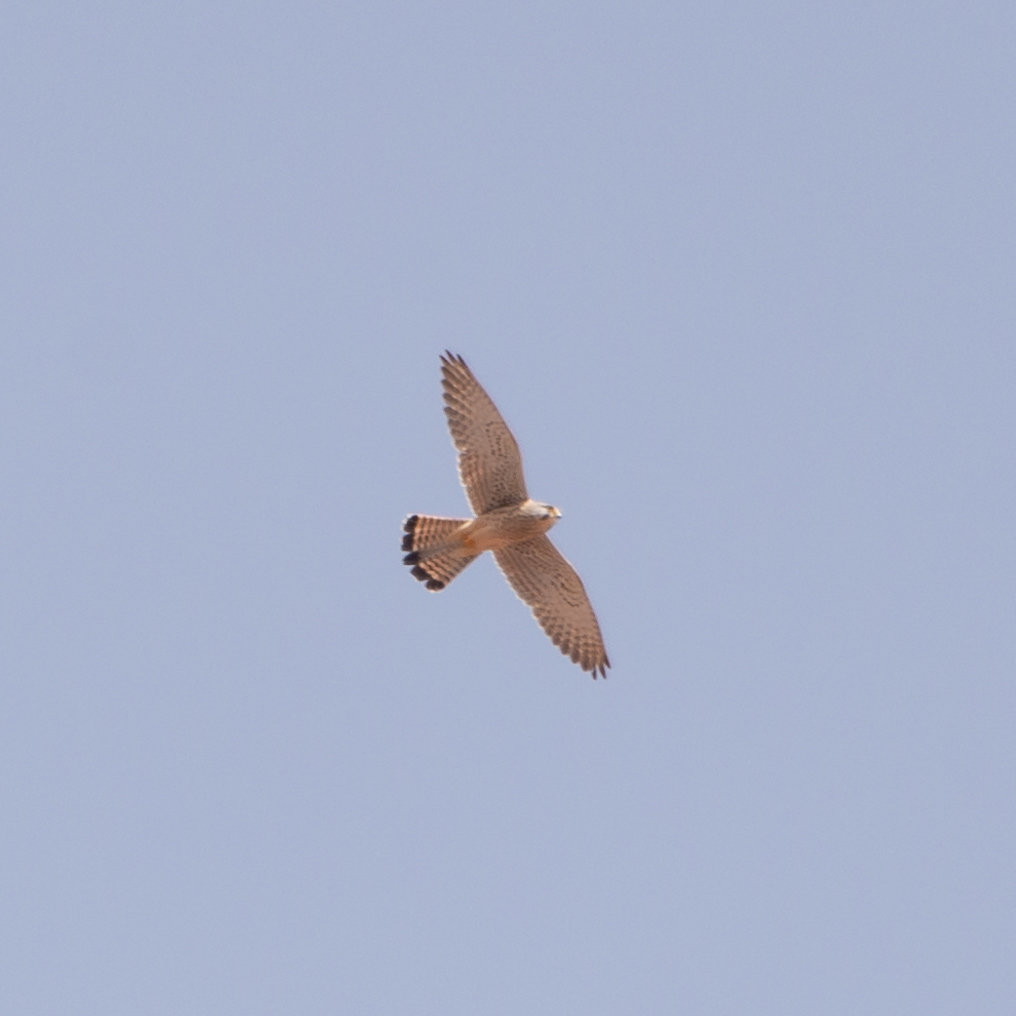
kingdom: Animalia
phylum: Chordata
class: Aves
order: Falconiformes
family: Falconidae
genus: Falco
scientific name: Falco tinnunculus
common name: Common kestrel
